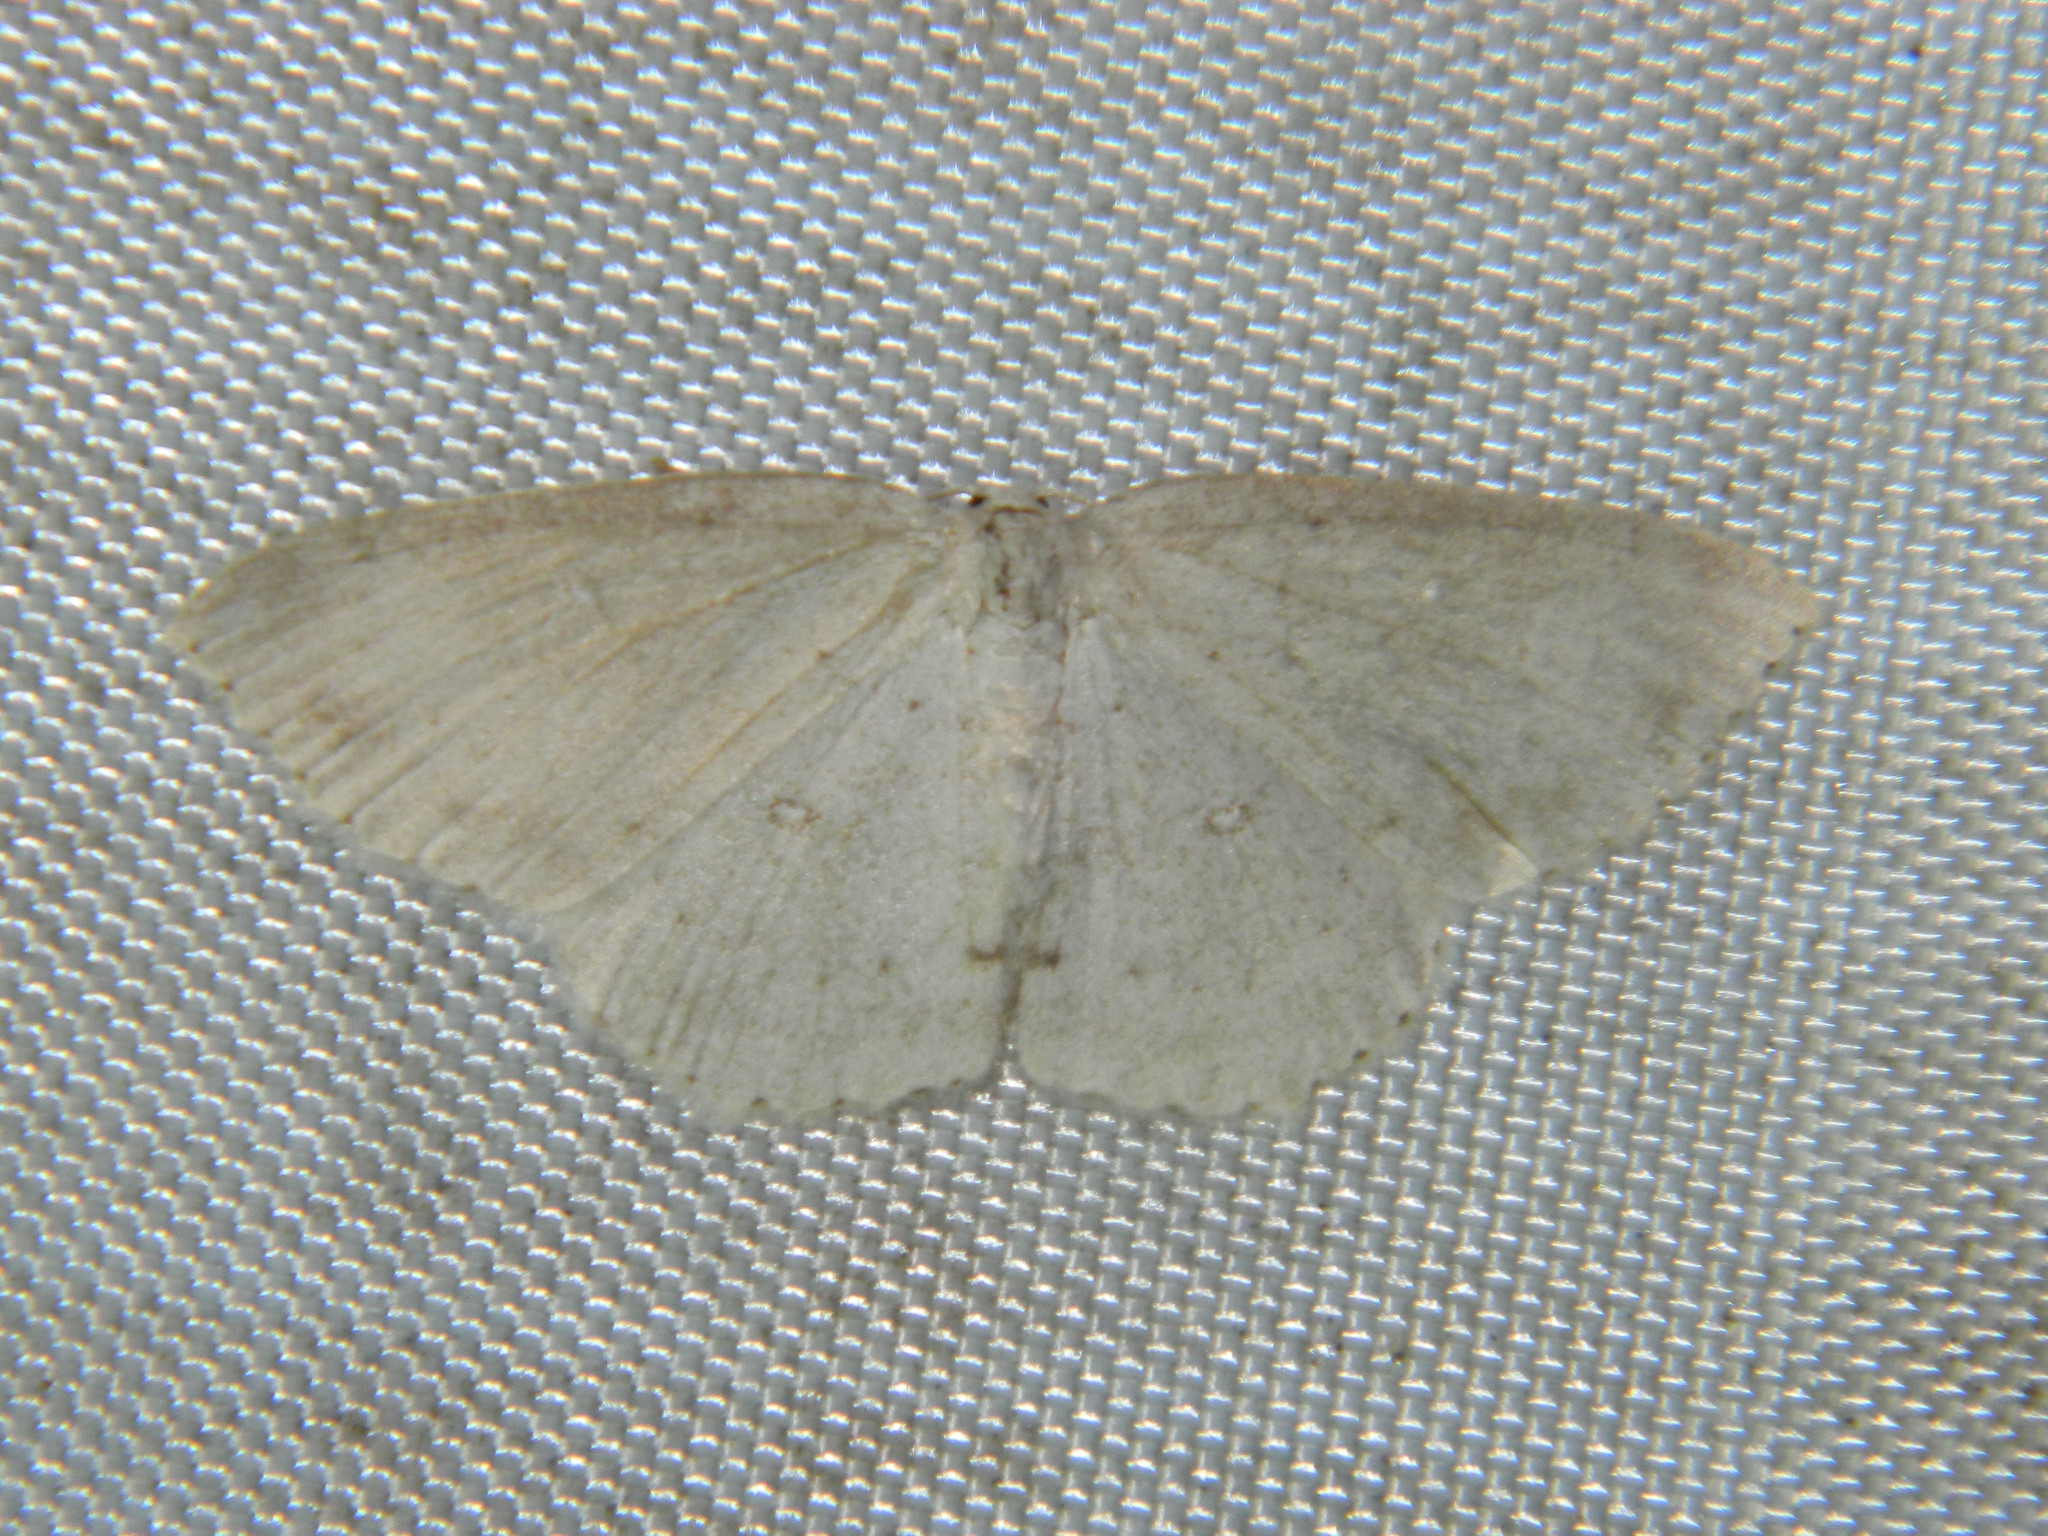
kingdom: Animalia
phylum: Arthropoda
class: Insecta
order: Lepidoptera
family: Geometridae
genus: Cyclophora
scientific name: Cyclophora pendulinaria
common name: Sweet fern geometer
